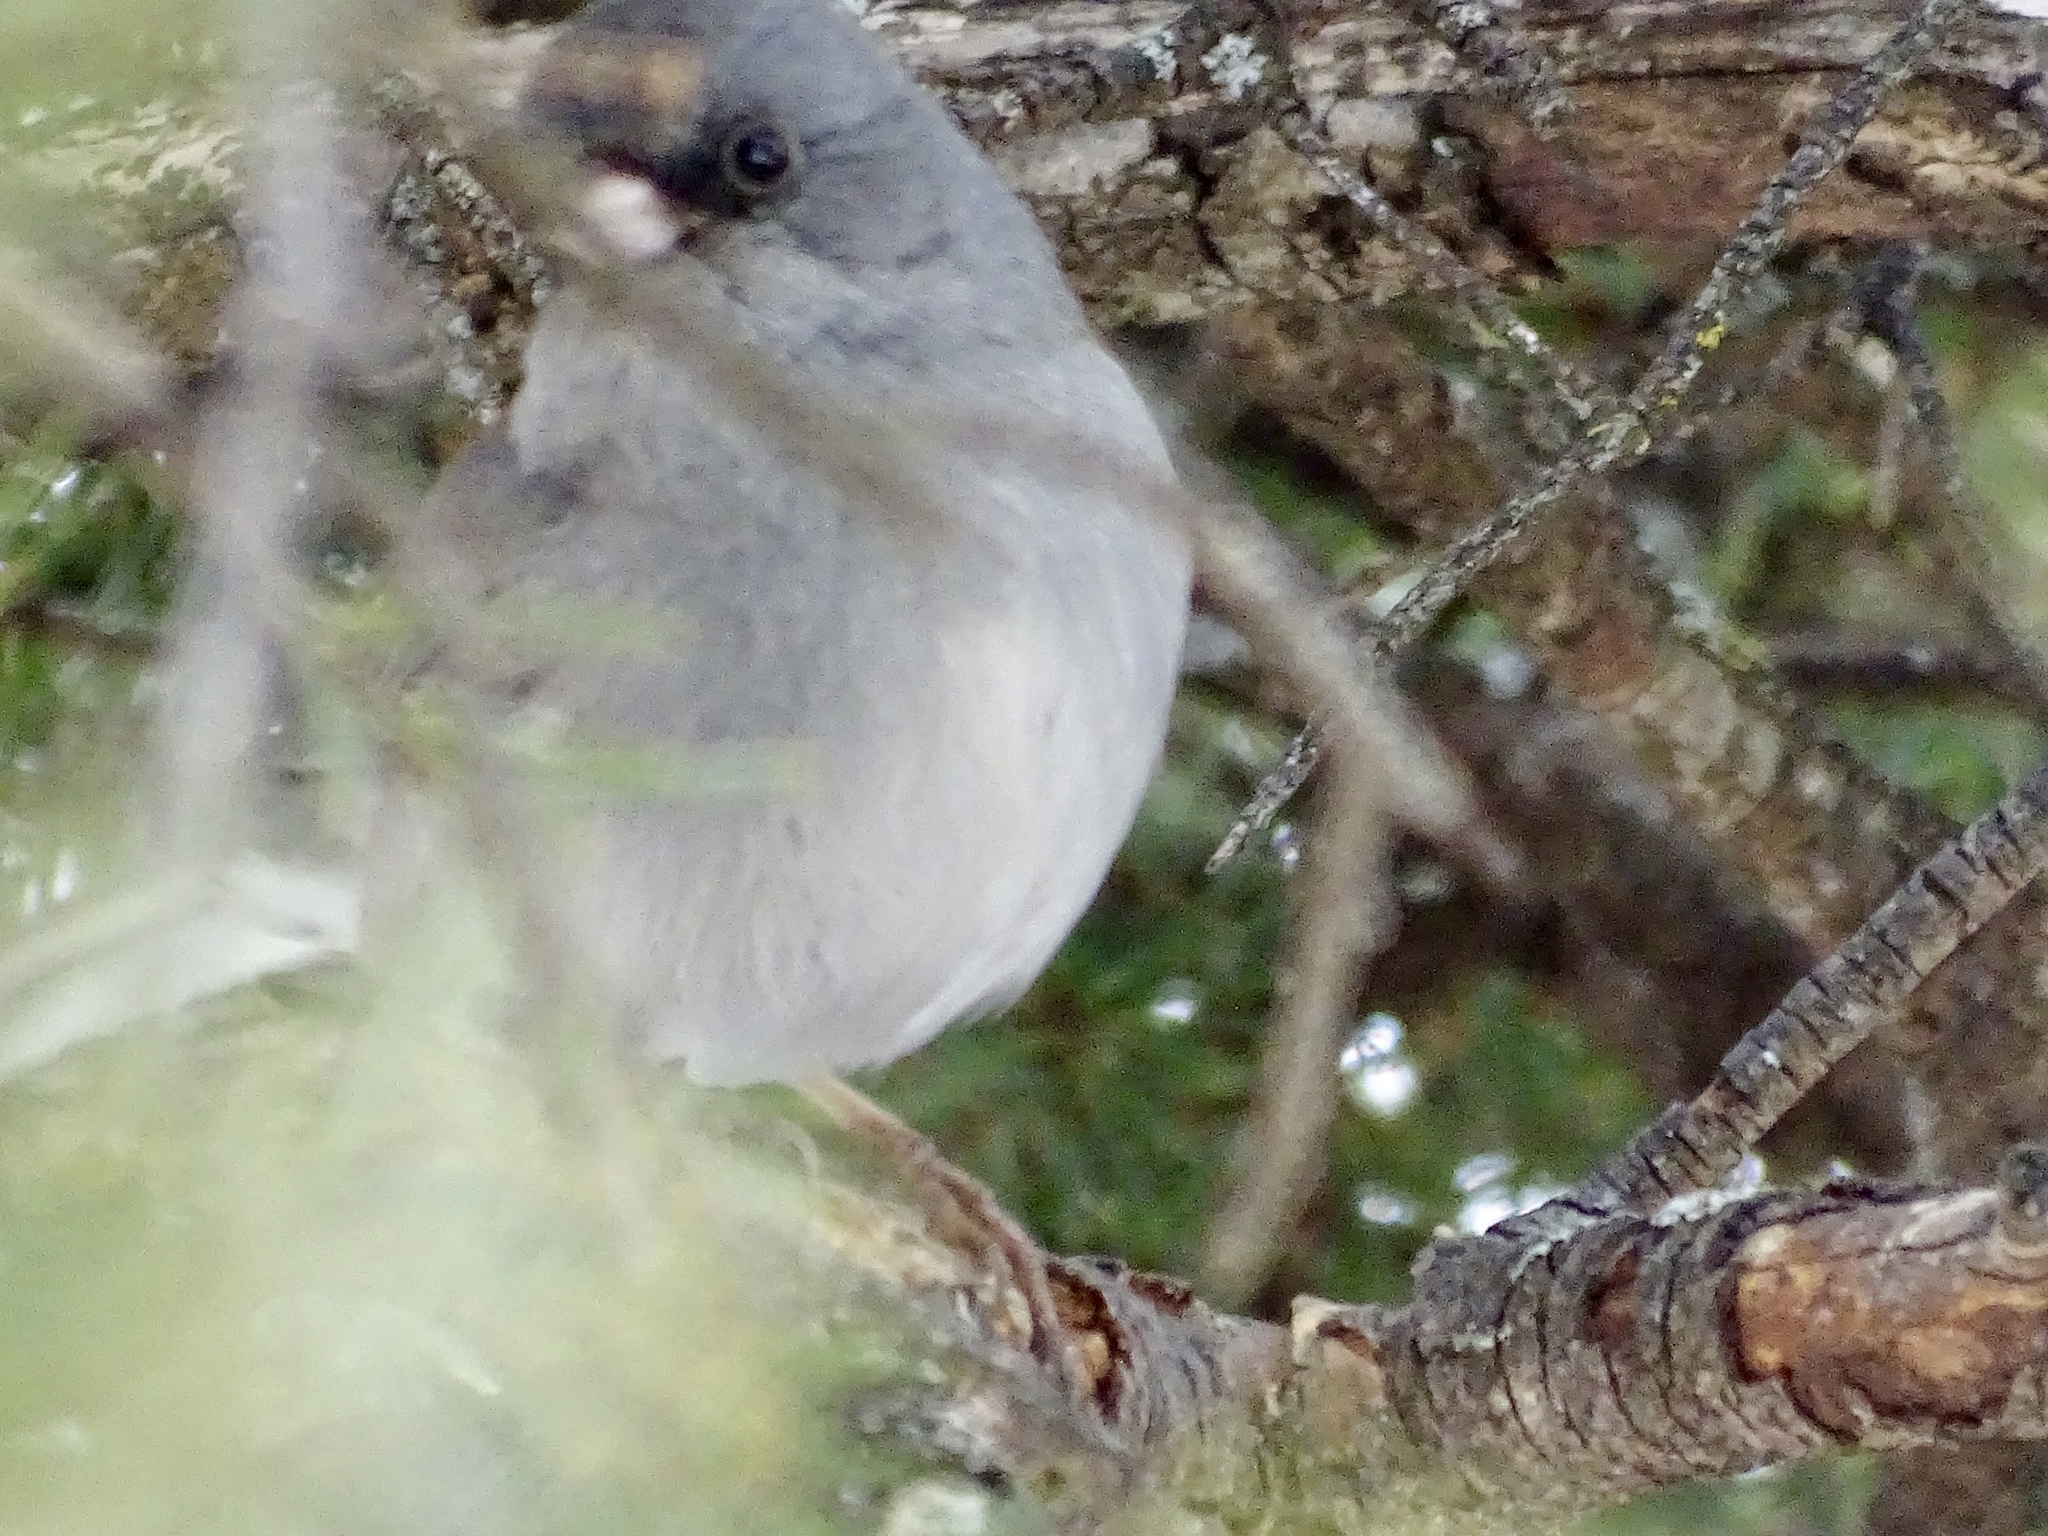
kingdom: Animalia
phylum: Chordata
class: Aves
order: Passeriformes
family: Passerellidae
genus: Junco
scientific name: Junco hyemalis
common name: Dark-eyed junco
